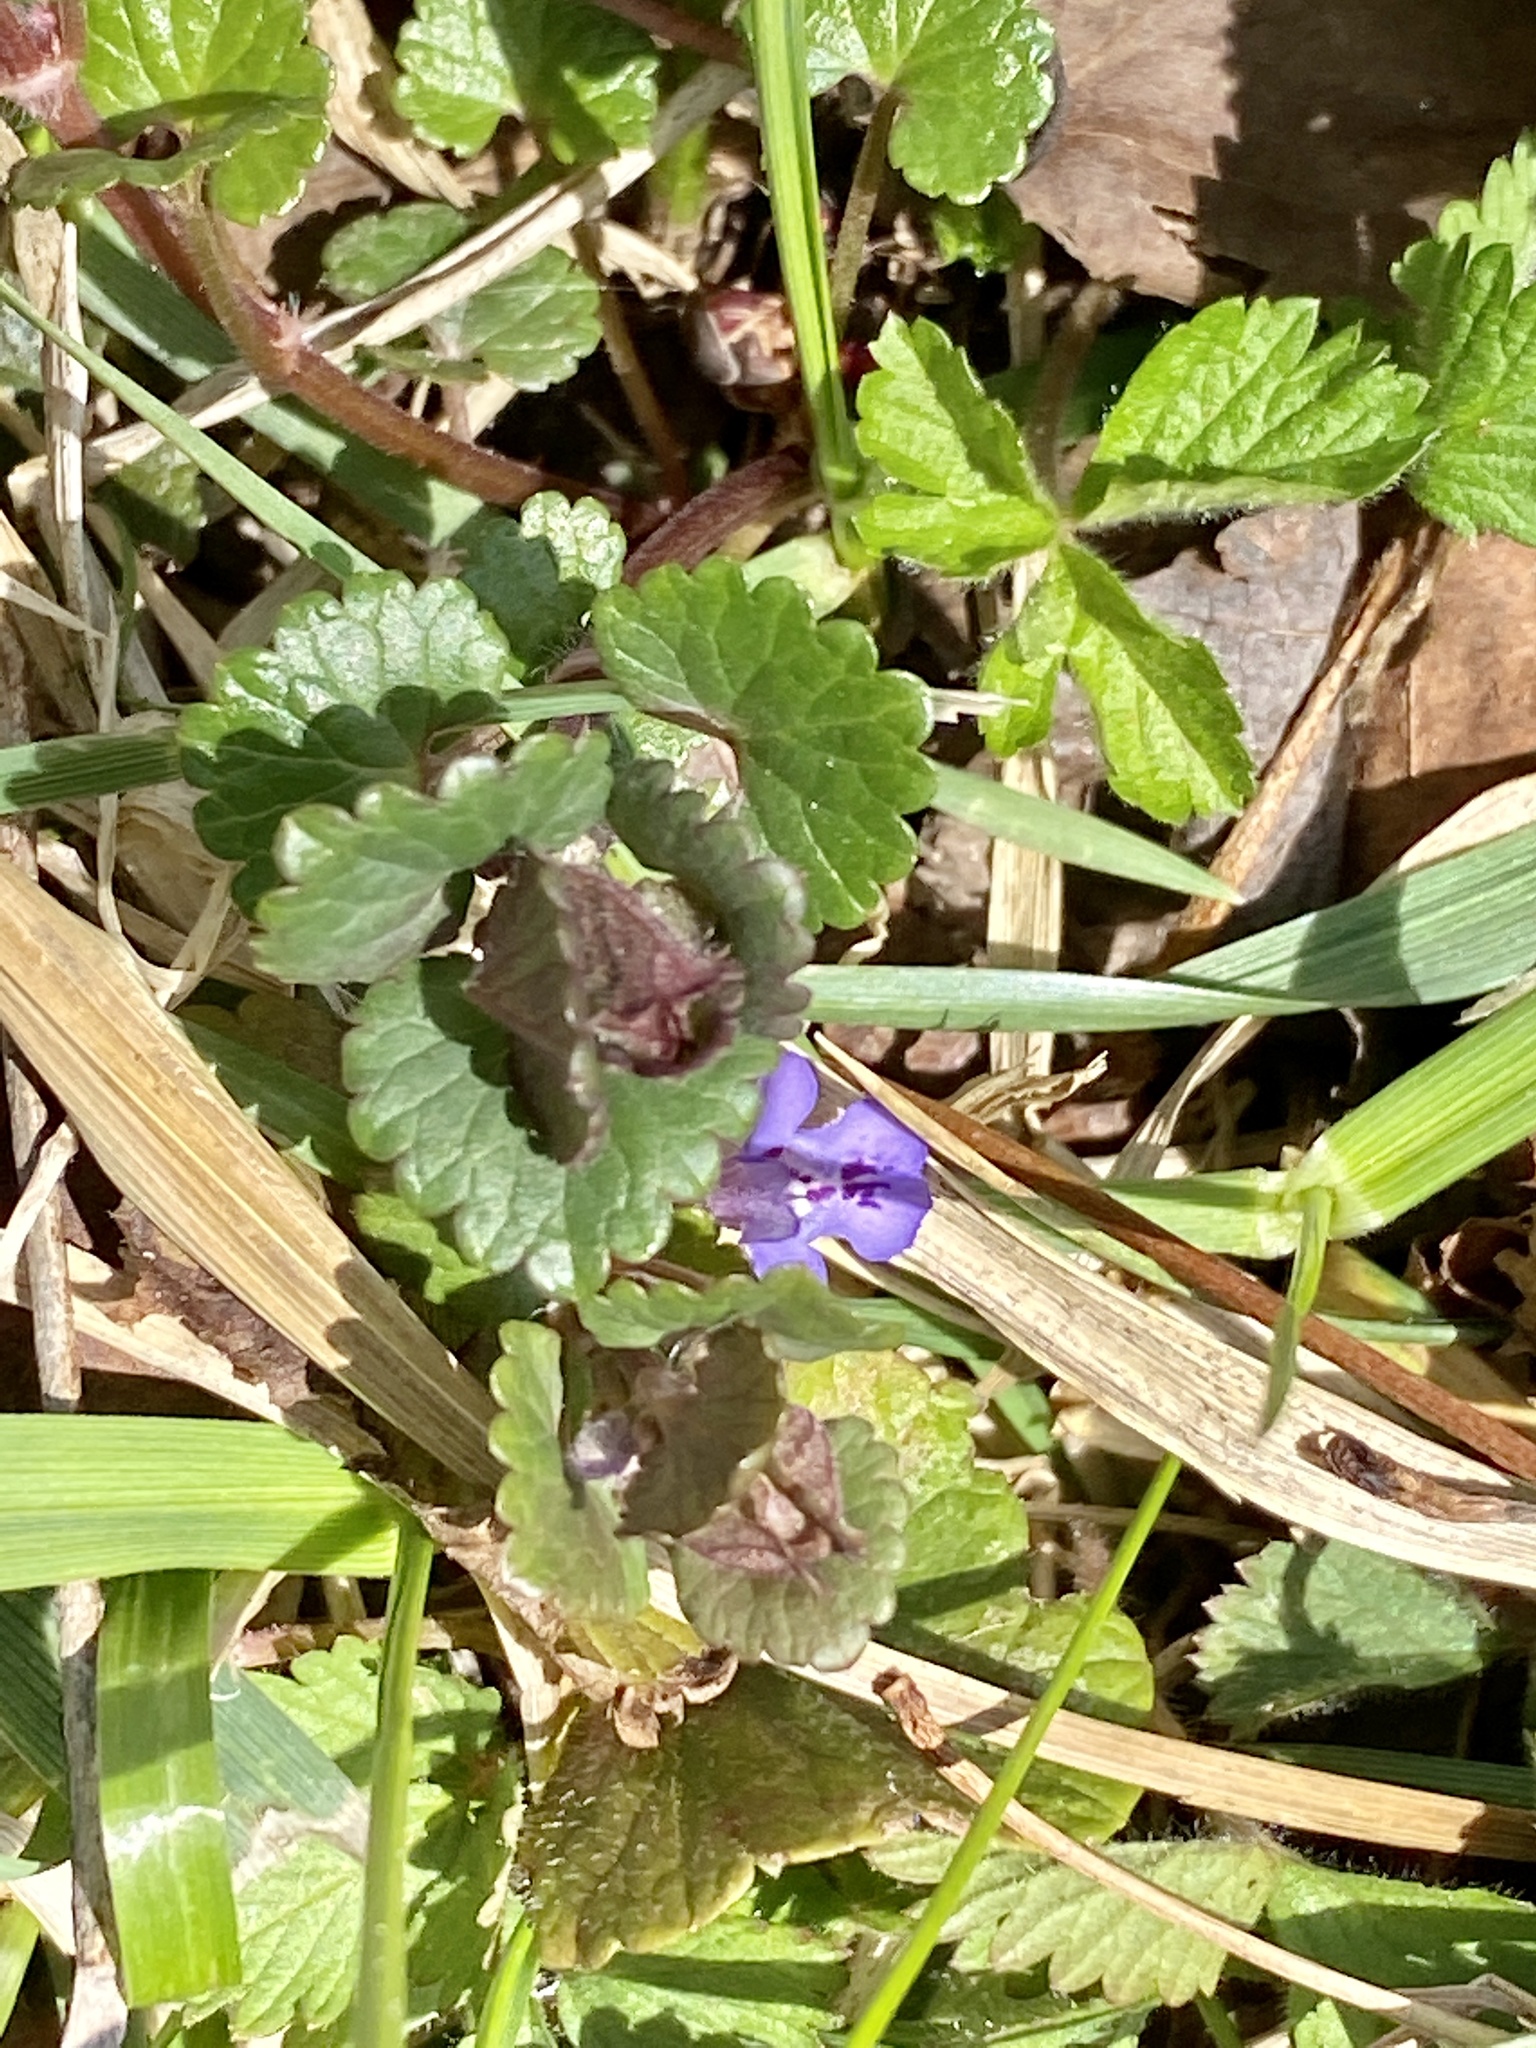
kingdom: Plantae
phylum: Tracheophyta
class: Magnoliopsida
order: Lamiales
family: Lamiaceae
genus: Glechoma
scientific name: Glechoma hederacea
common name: Ground ivy
